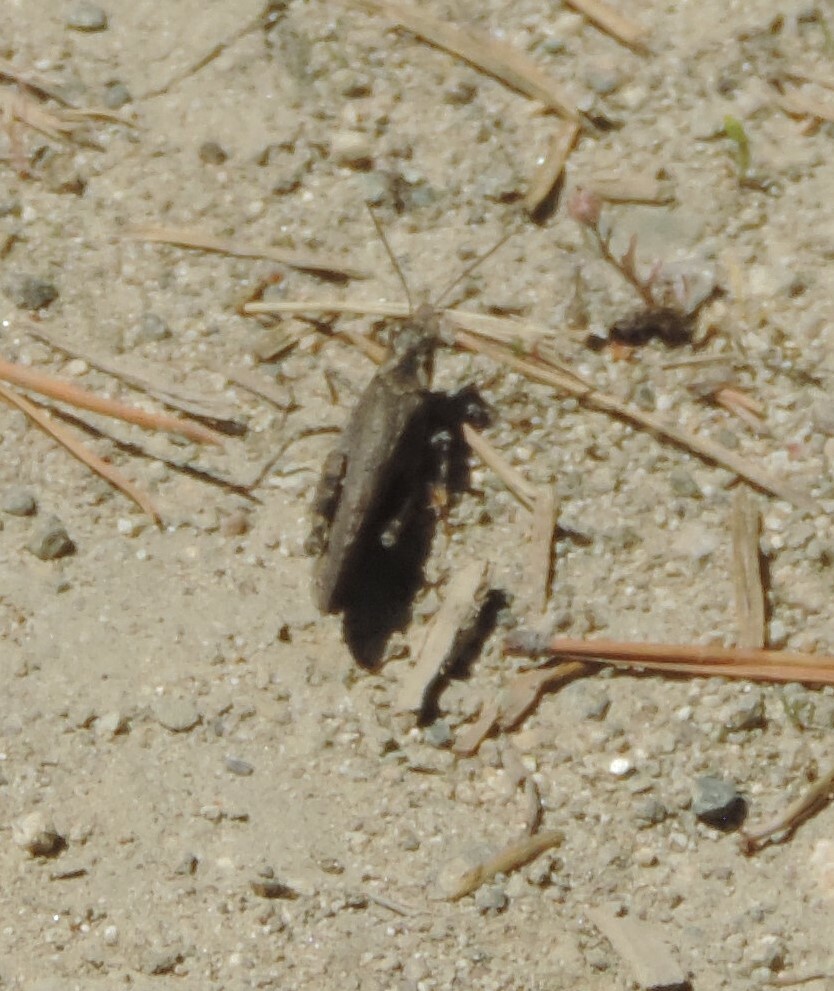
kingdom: Animalia
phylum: Arthropoda
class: Insecta
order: Orthoptera
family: Acrididae
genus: Trimerotropis
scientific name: Trimerotropis verruculata
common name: Crackling forest grasshopper
